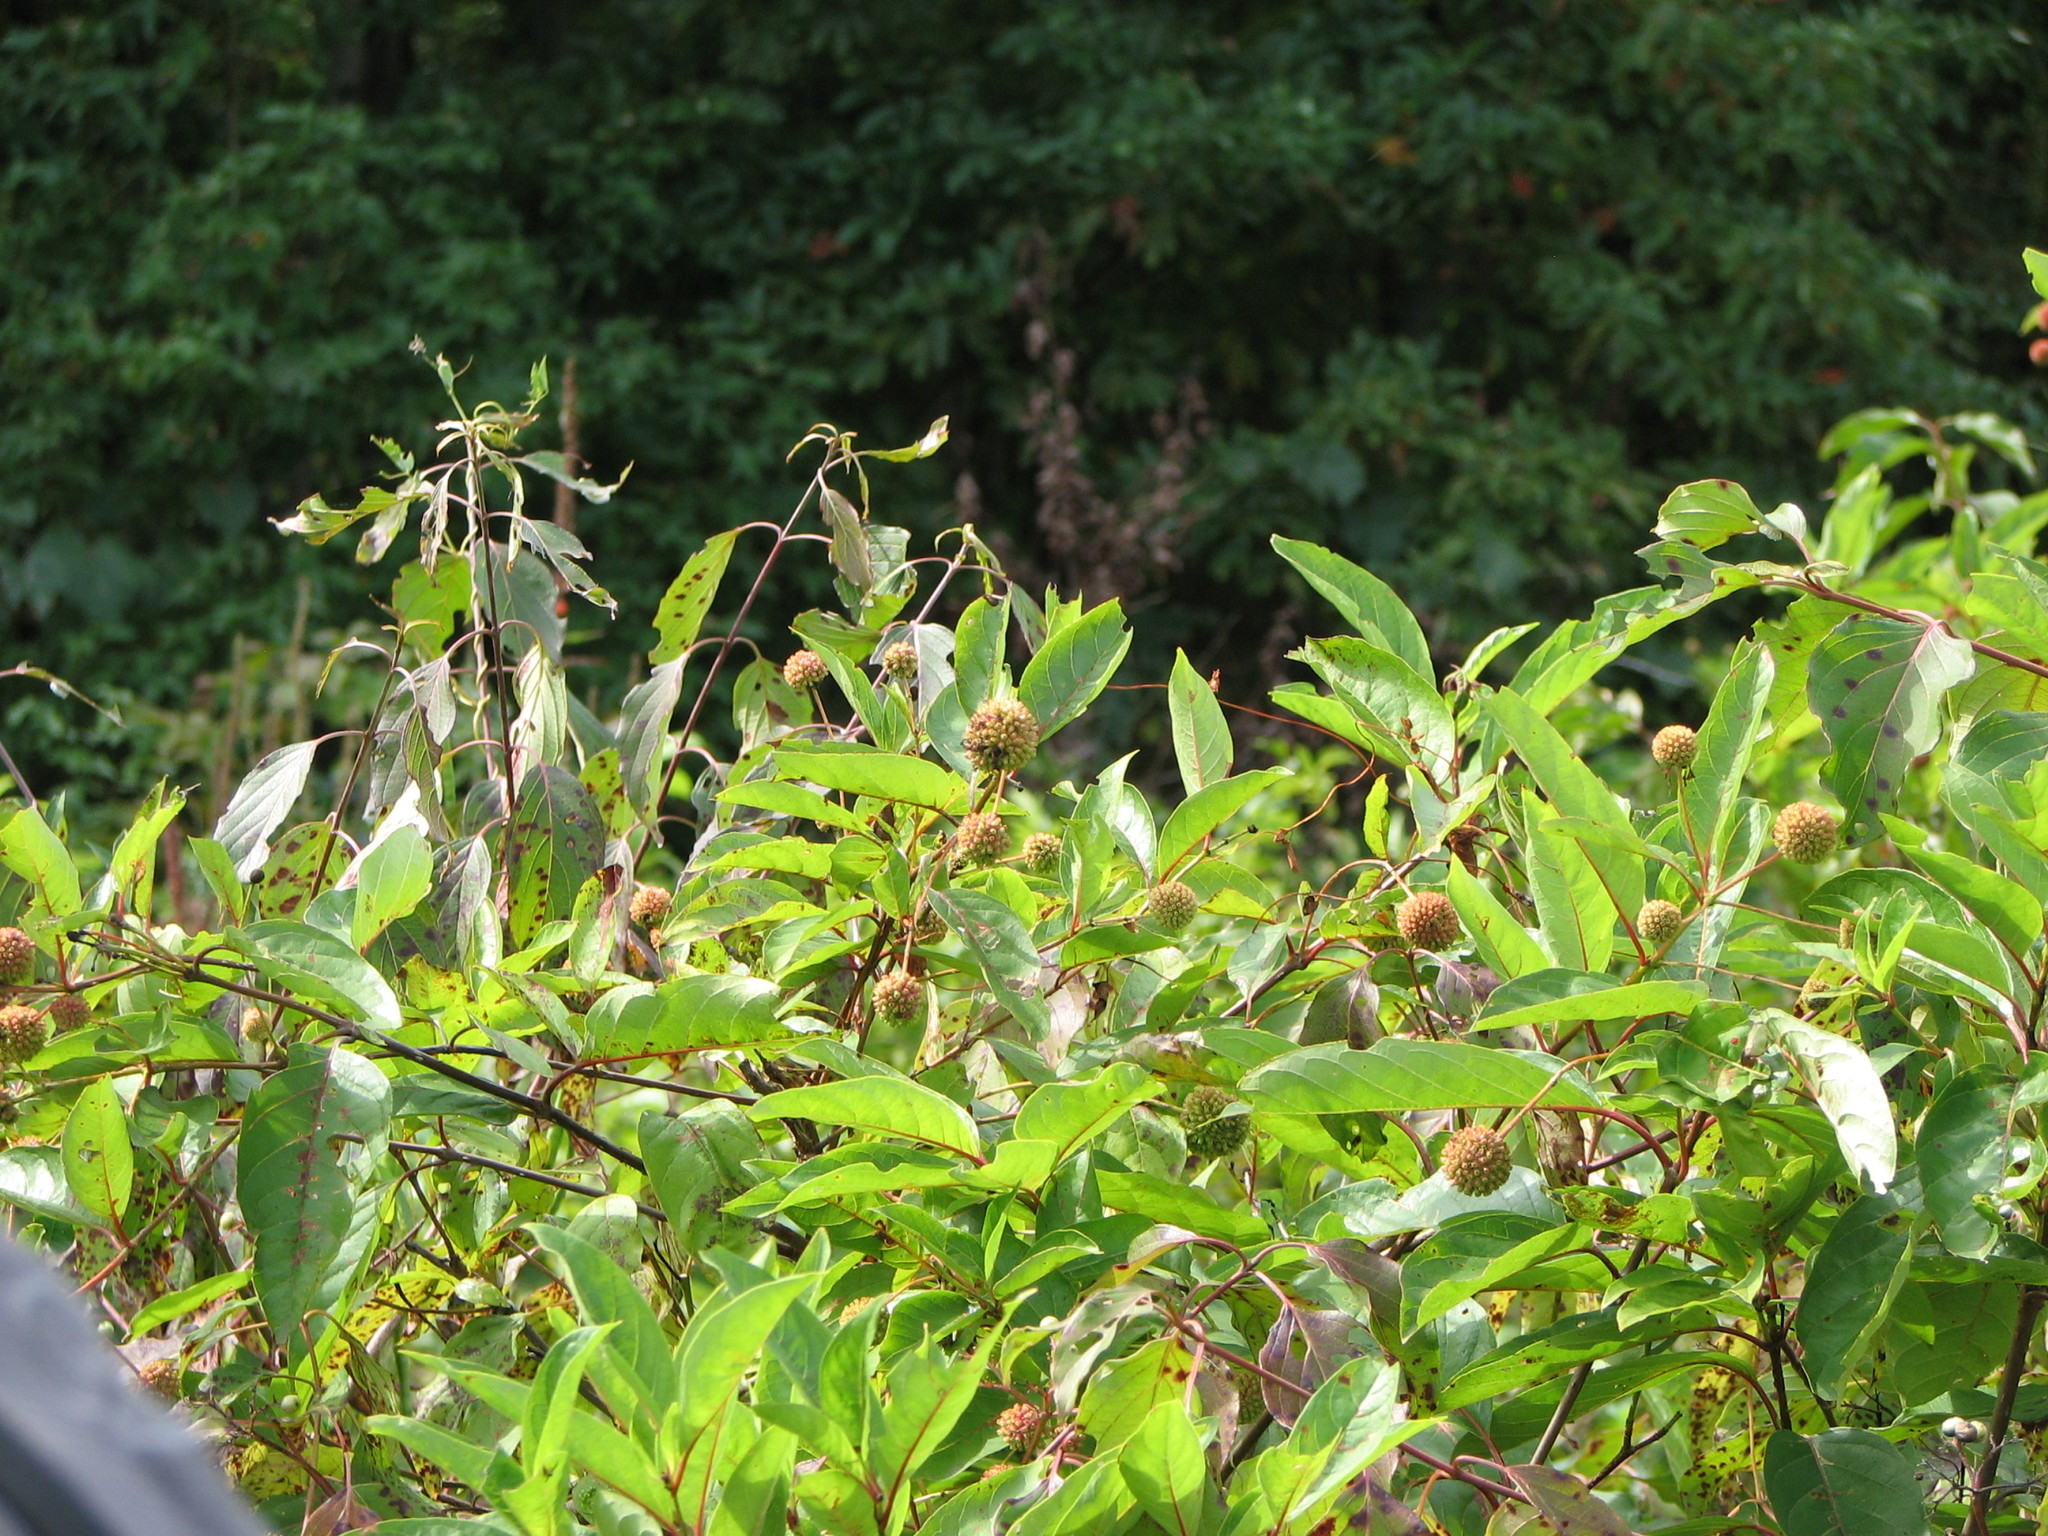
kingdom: Plantae
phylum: Tracheophyta
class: Magnoliopsida
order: Gentianales
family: Rubiaceae
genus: Cephalanthus
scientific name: Cephalanthus occidentalis
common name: Button-willow
